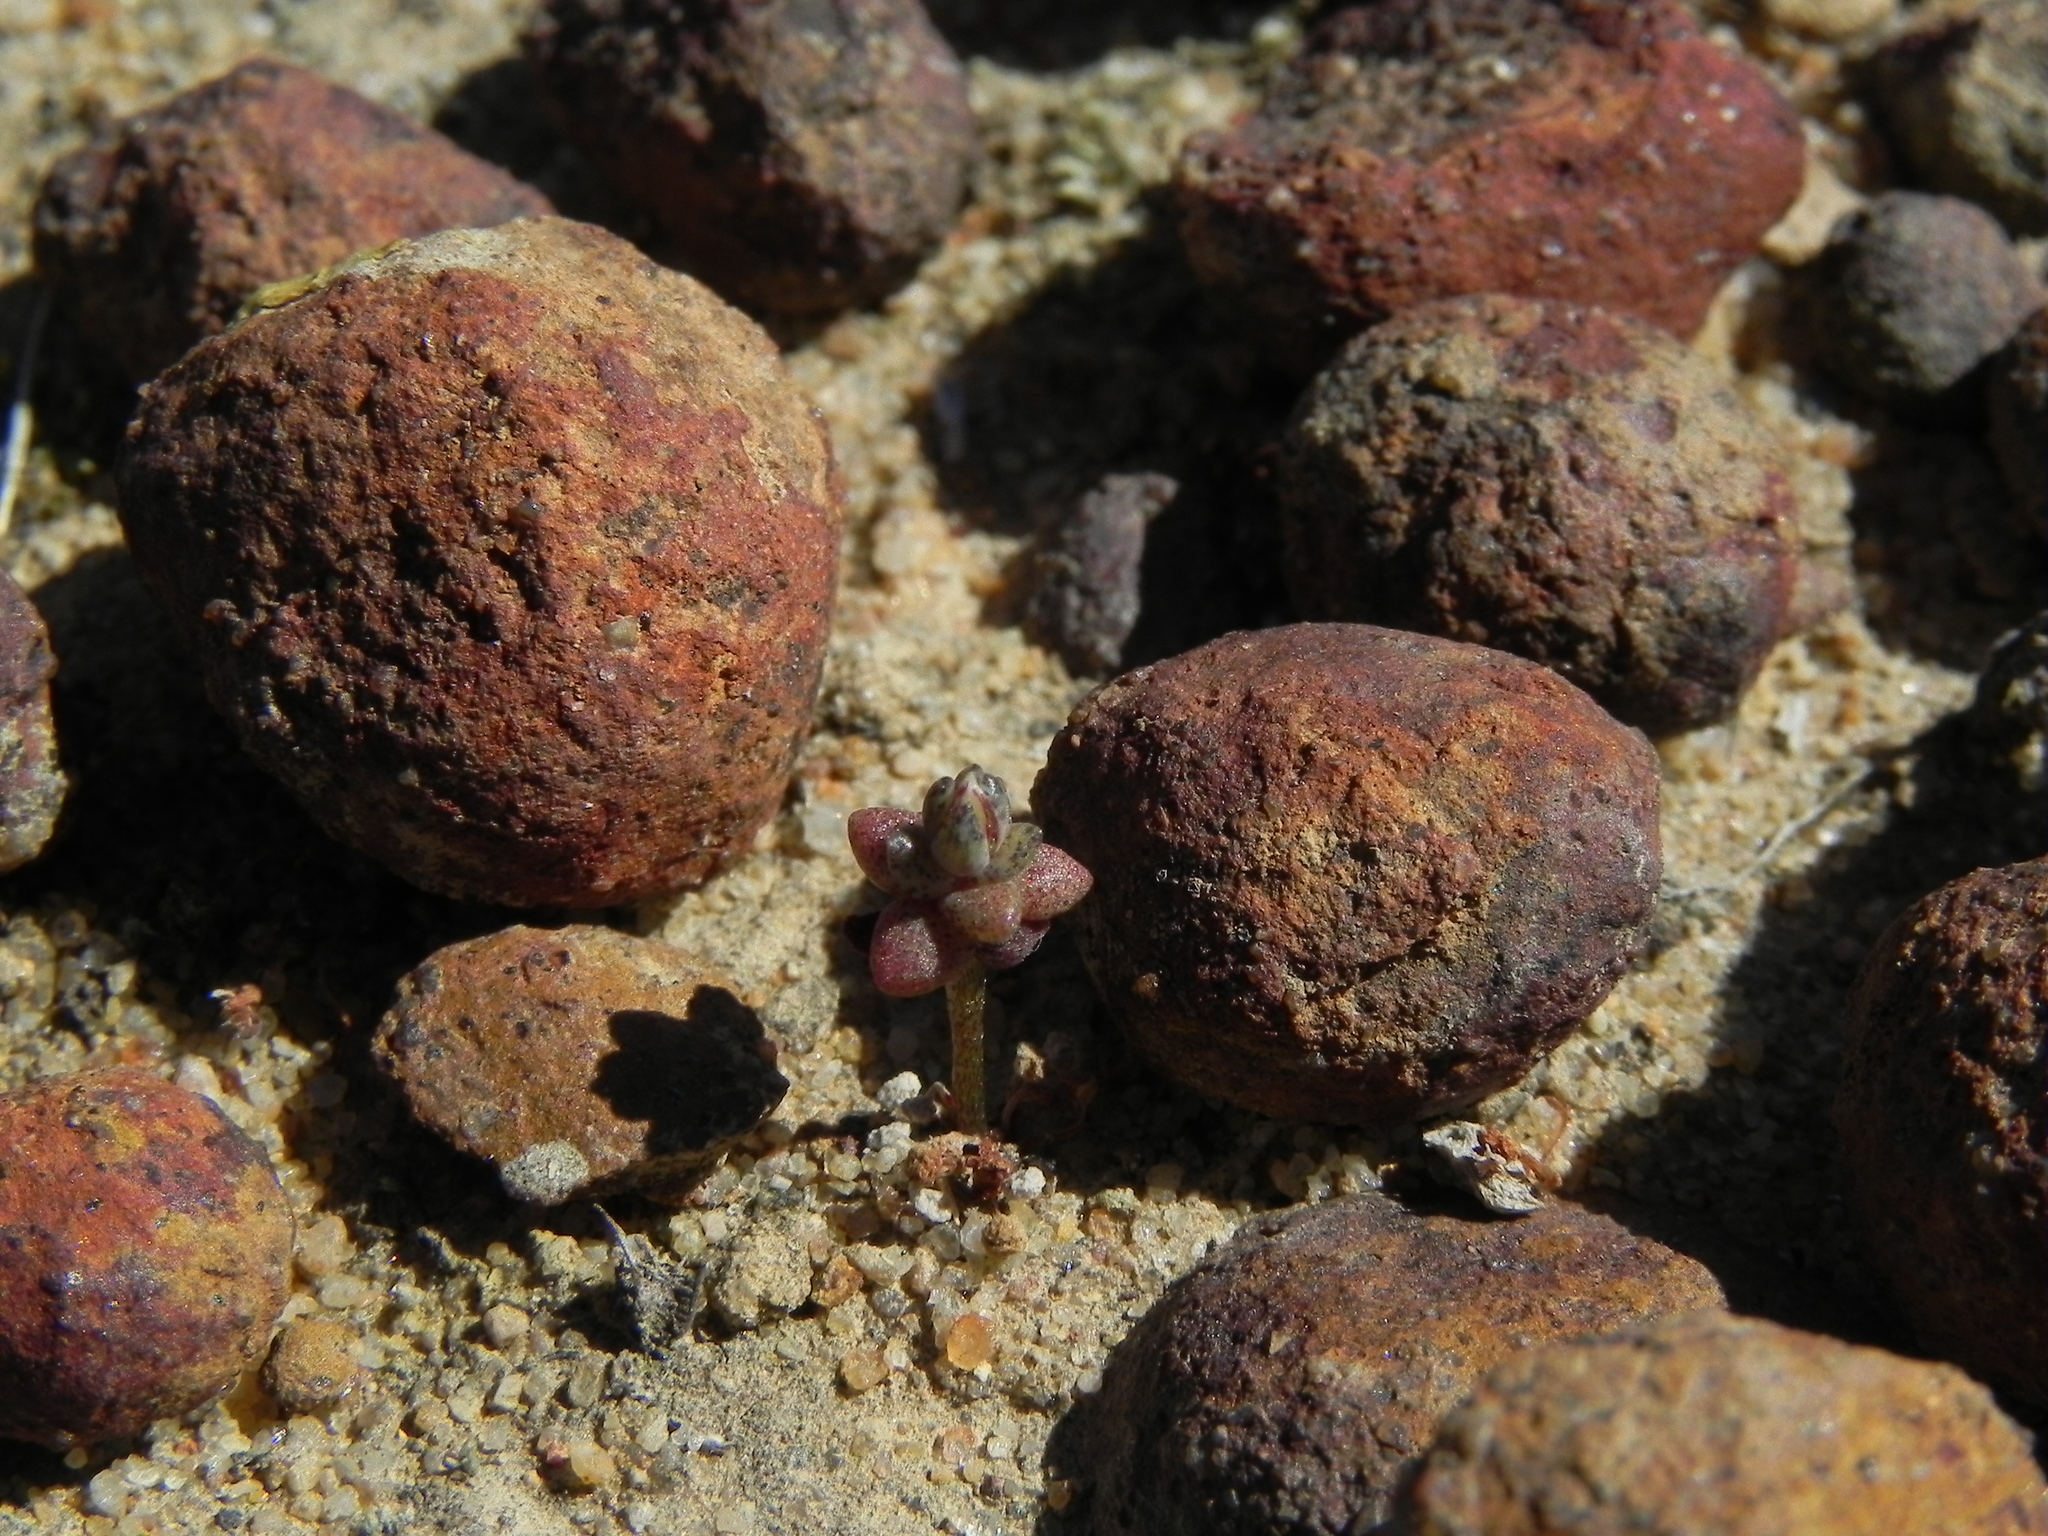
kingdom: Plantae
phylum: Tracheophyta
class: Magnoliopsida
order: Saxifragales
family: Crassulaceae
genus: Dudleya
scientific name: Dudleya blochmaniae
